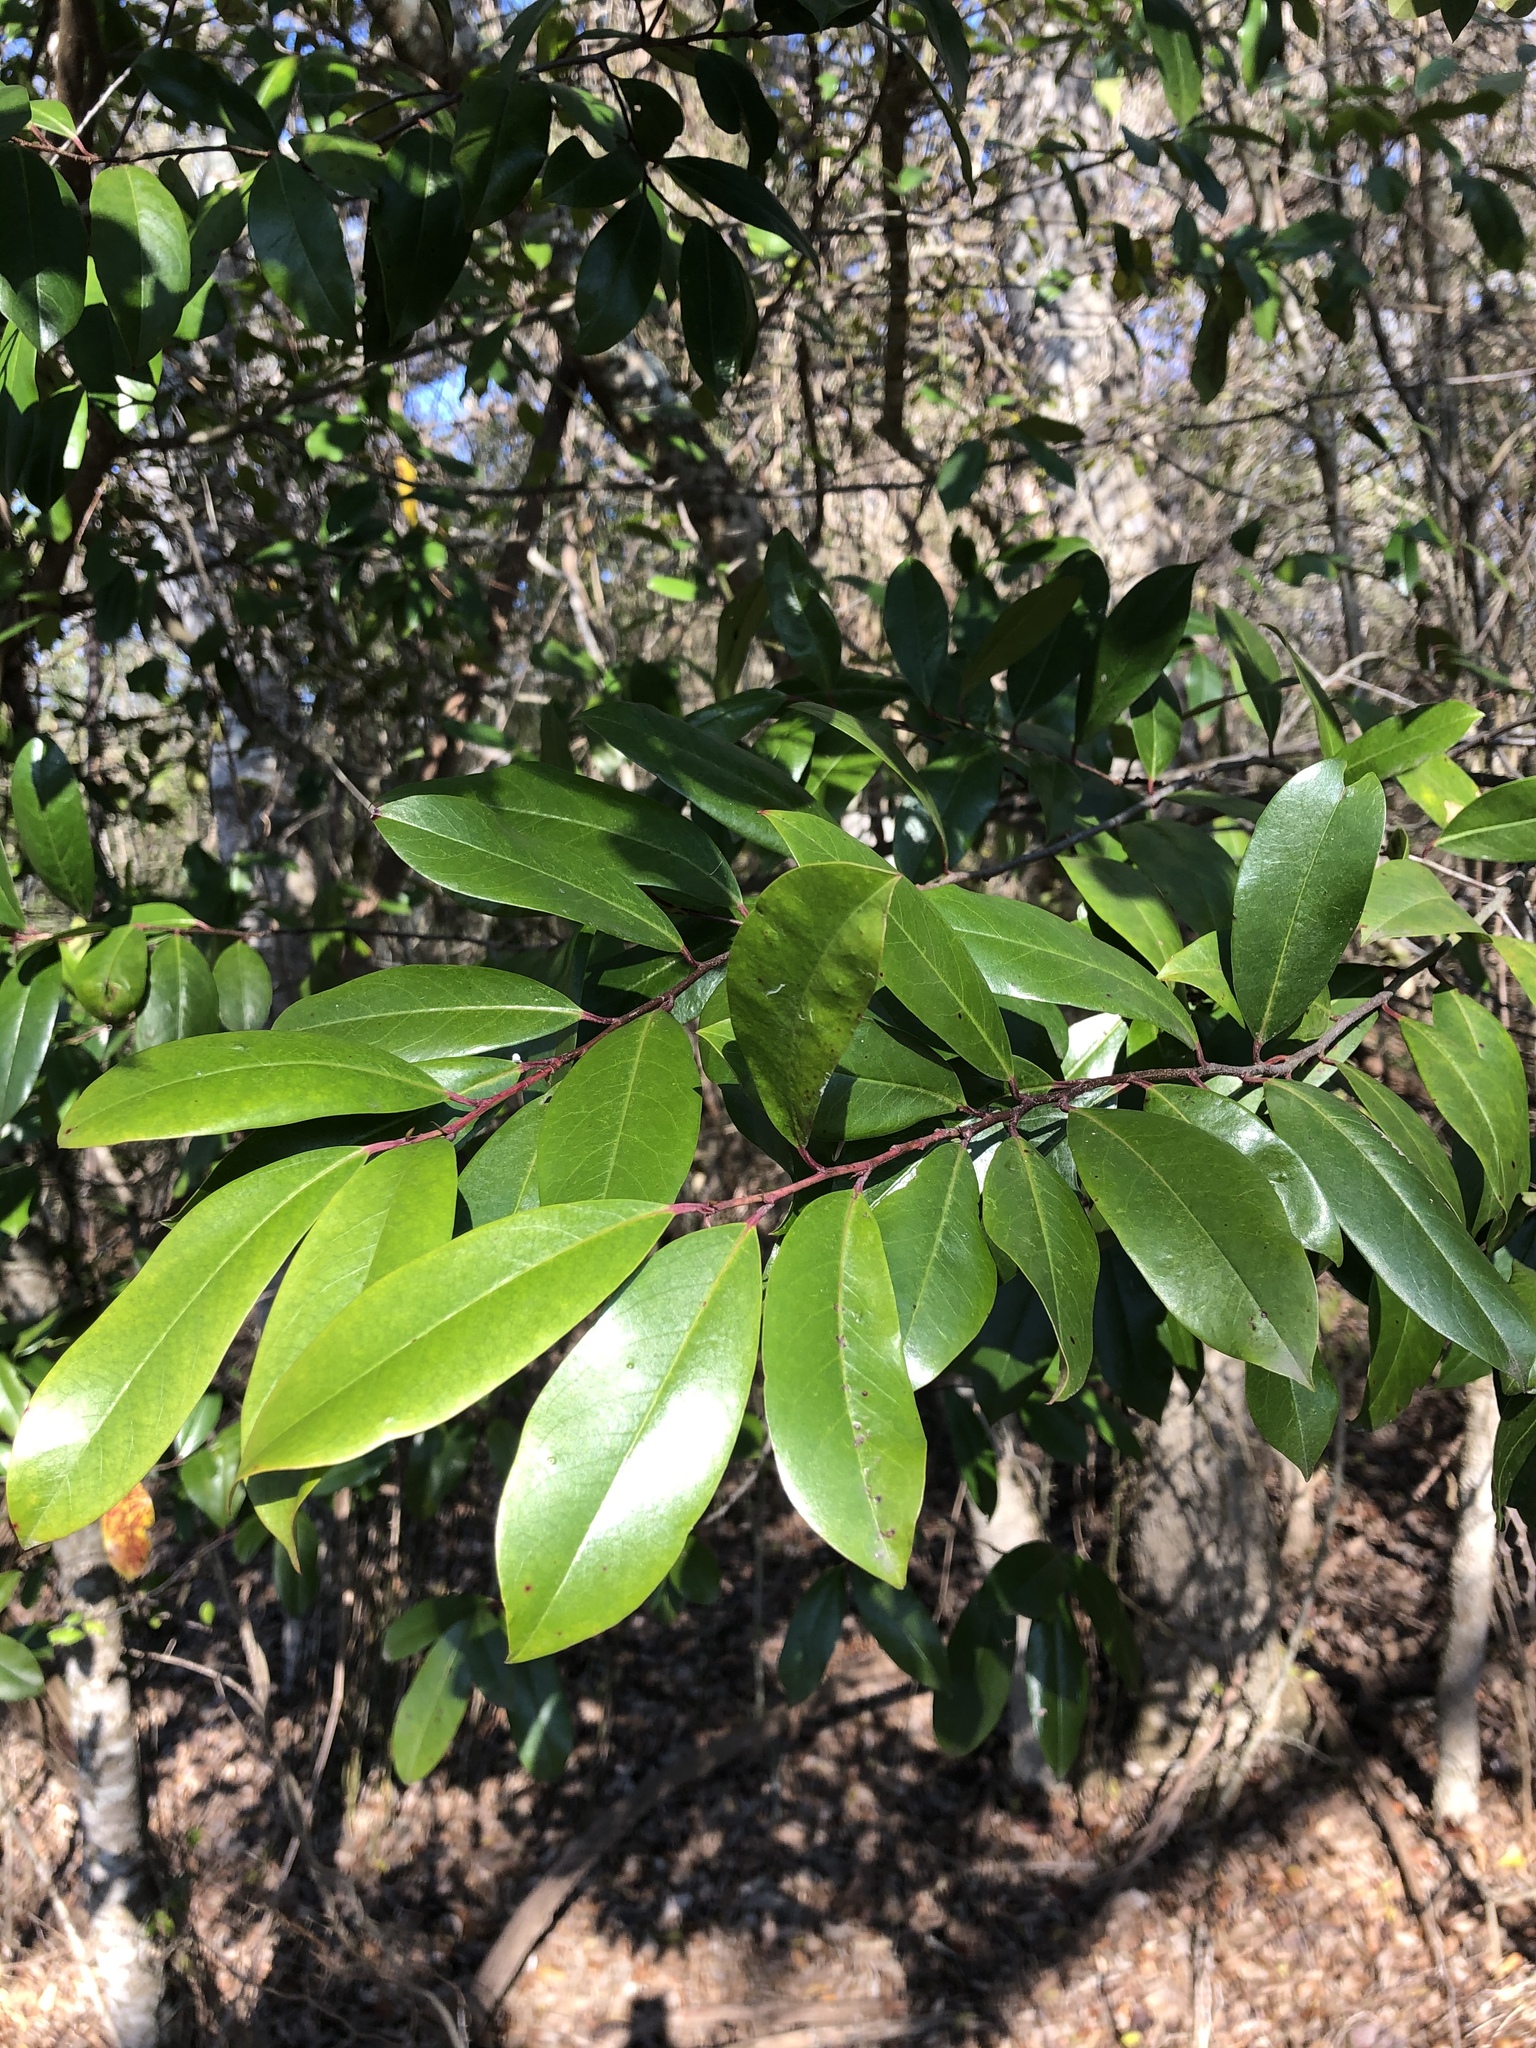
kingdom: Plantae
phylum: Tracheophyta
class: Magnoliopsida
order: Rosales
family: Rosaceae
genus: Prunus
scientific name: Prunus caroliniana
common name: Carolina laurel cherry
